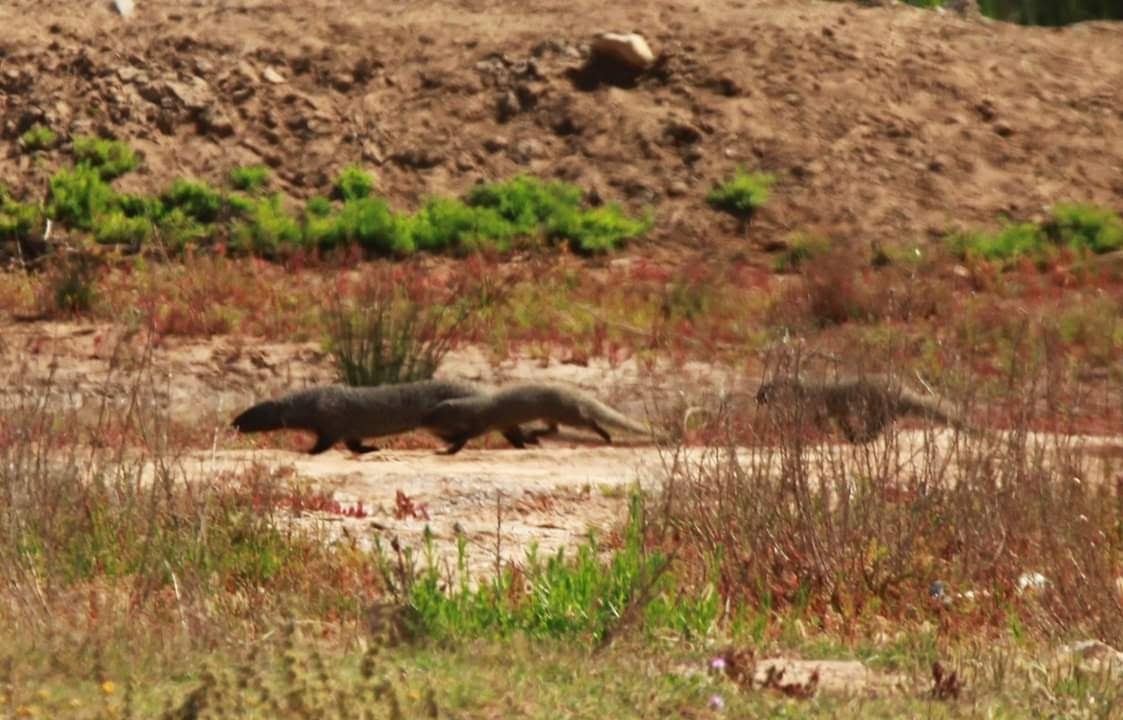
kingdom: Animalia
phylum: Chordata
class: Mammalia
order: Carnivora
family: Herpestidae
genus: Herpestes
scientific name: Herpestes ichneumon
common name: Egyptian mongoose
